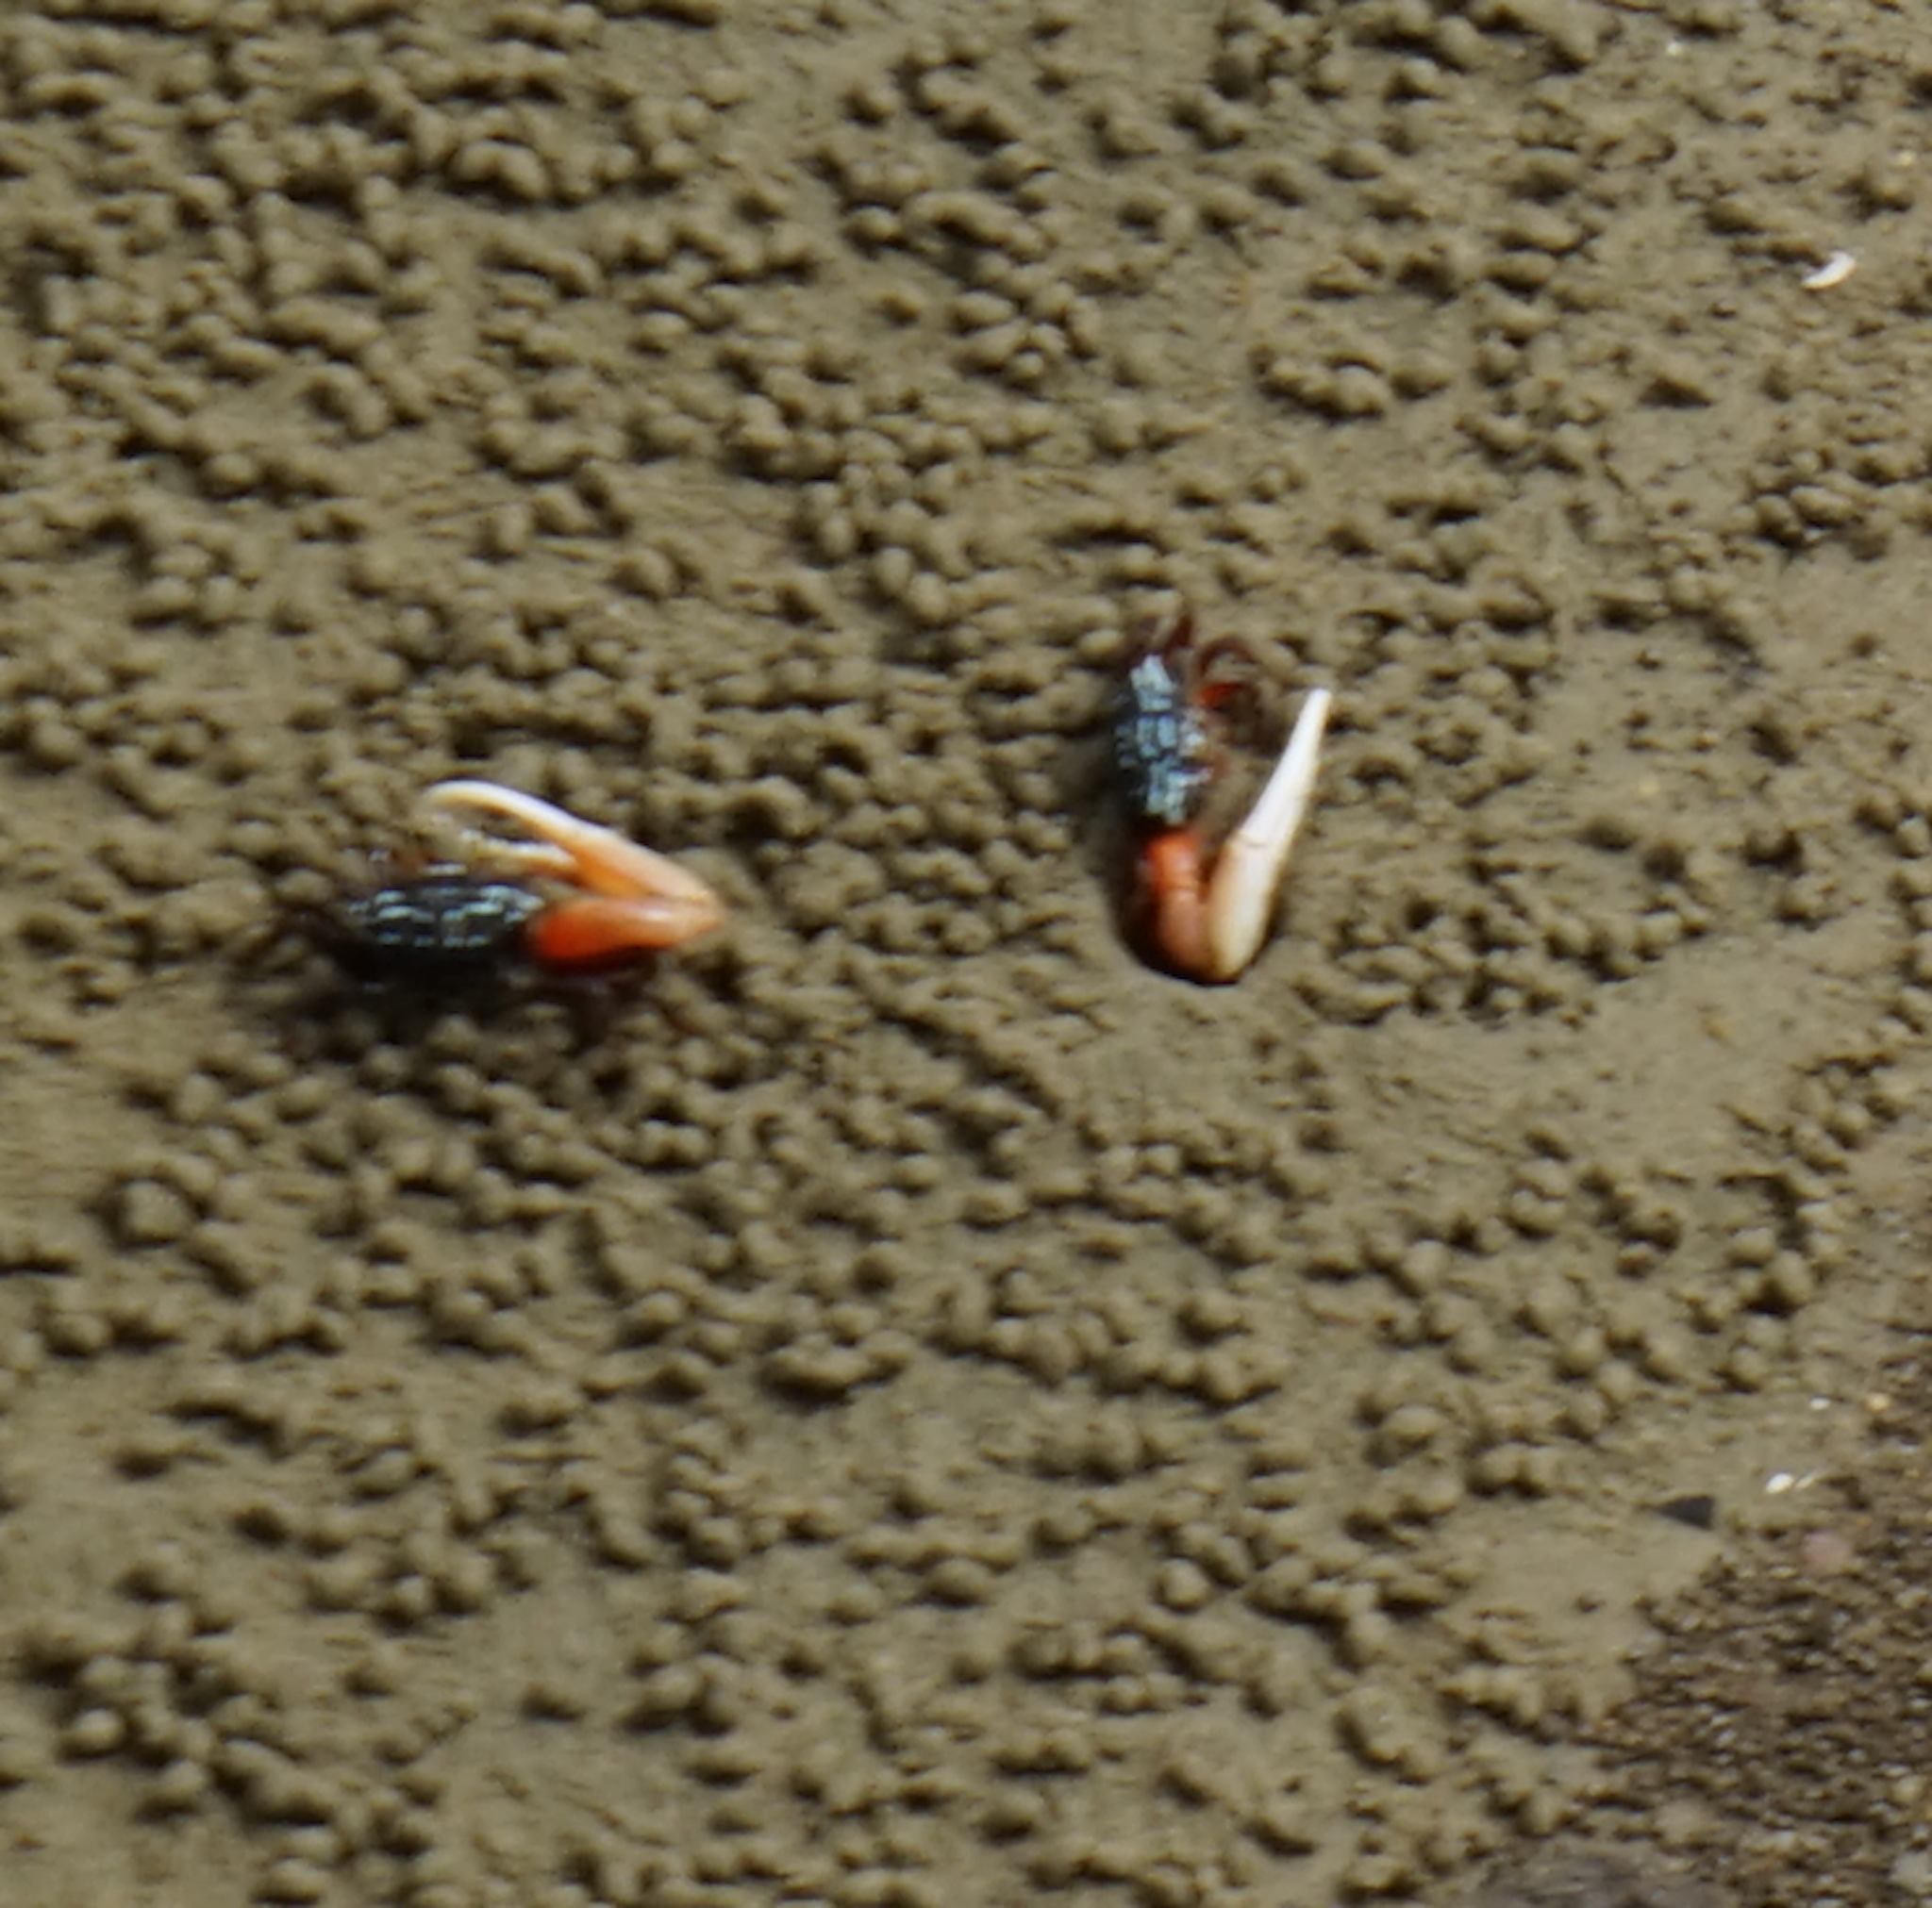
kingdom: Animalia
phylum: Arthropoda
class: Malacostraca
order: Decapoda
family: Ocypodidae
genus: Austruca
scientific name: Austruca annulipes
